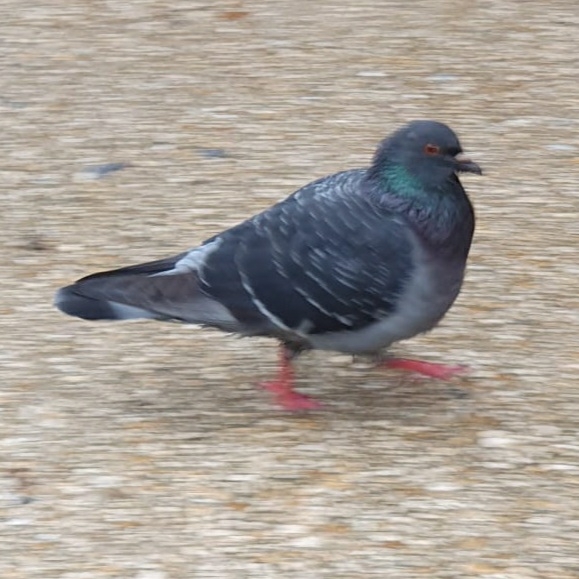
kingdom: Animalia
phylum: Chordata
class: Aves
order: Columbiformes
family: Columbidae
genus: Columba
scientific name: Columba livia
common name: Rock pigeon
